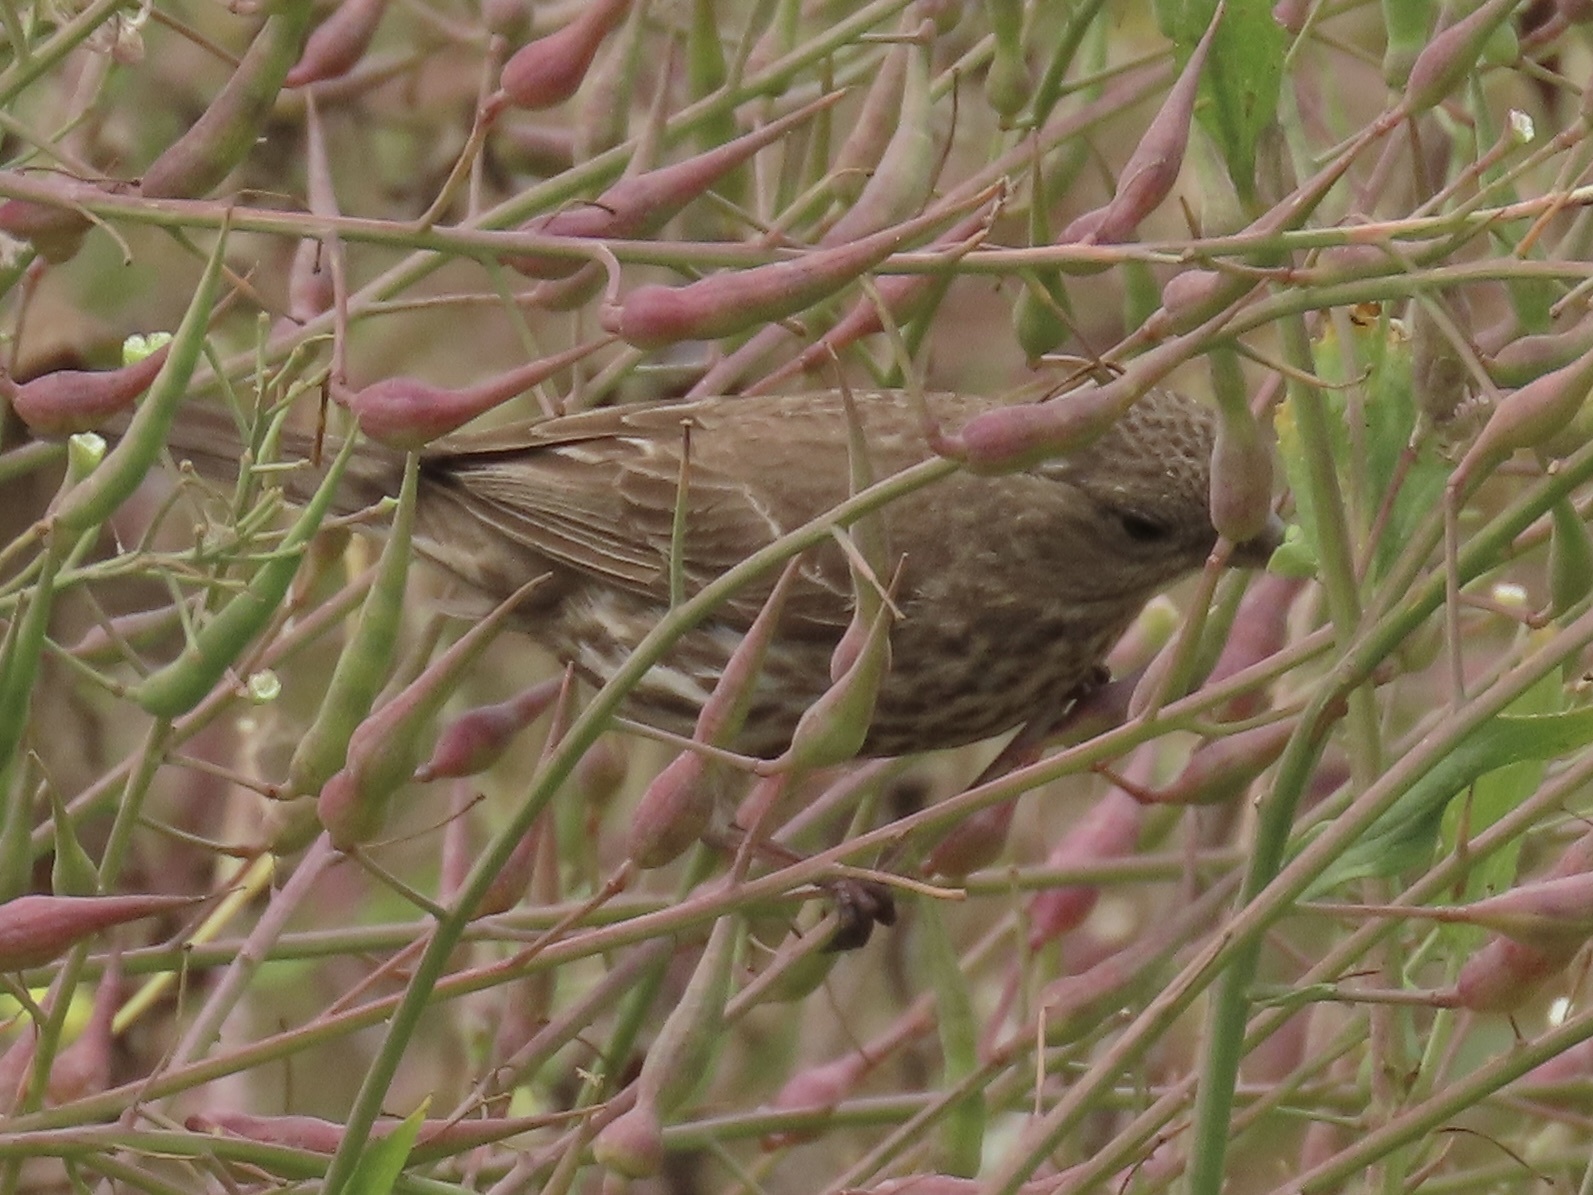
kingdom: Animalia
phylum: Chordata
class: Aves
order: Passeriformes
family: Fringillidae
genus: Haemorhous
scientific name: Haemorhous mexicanus
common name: House finch
